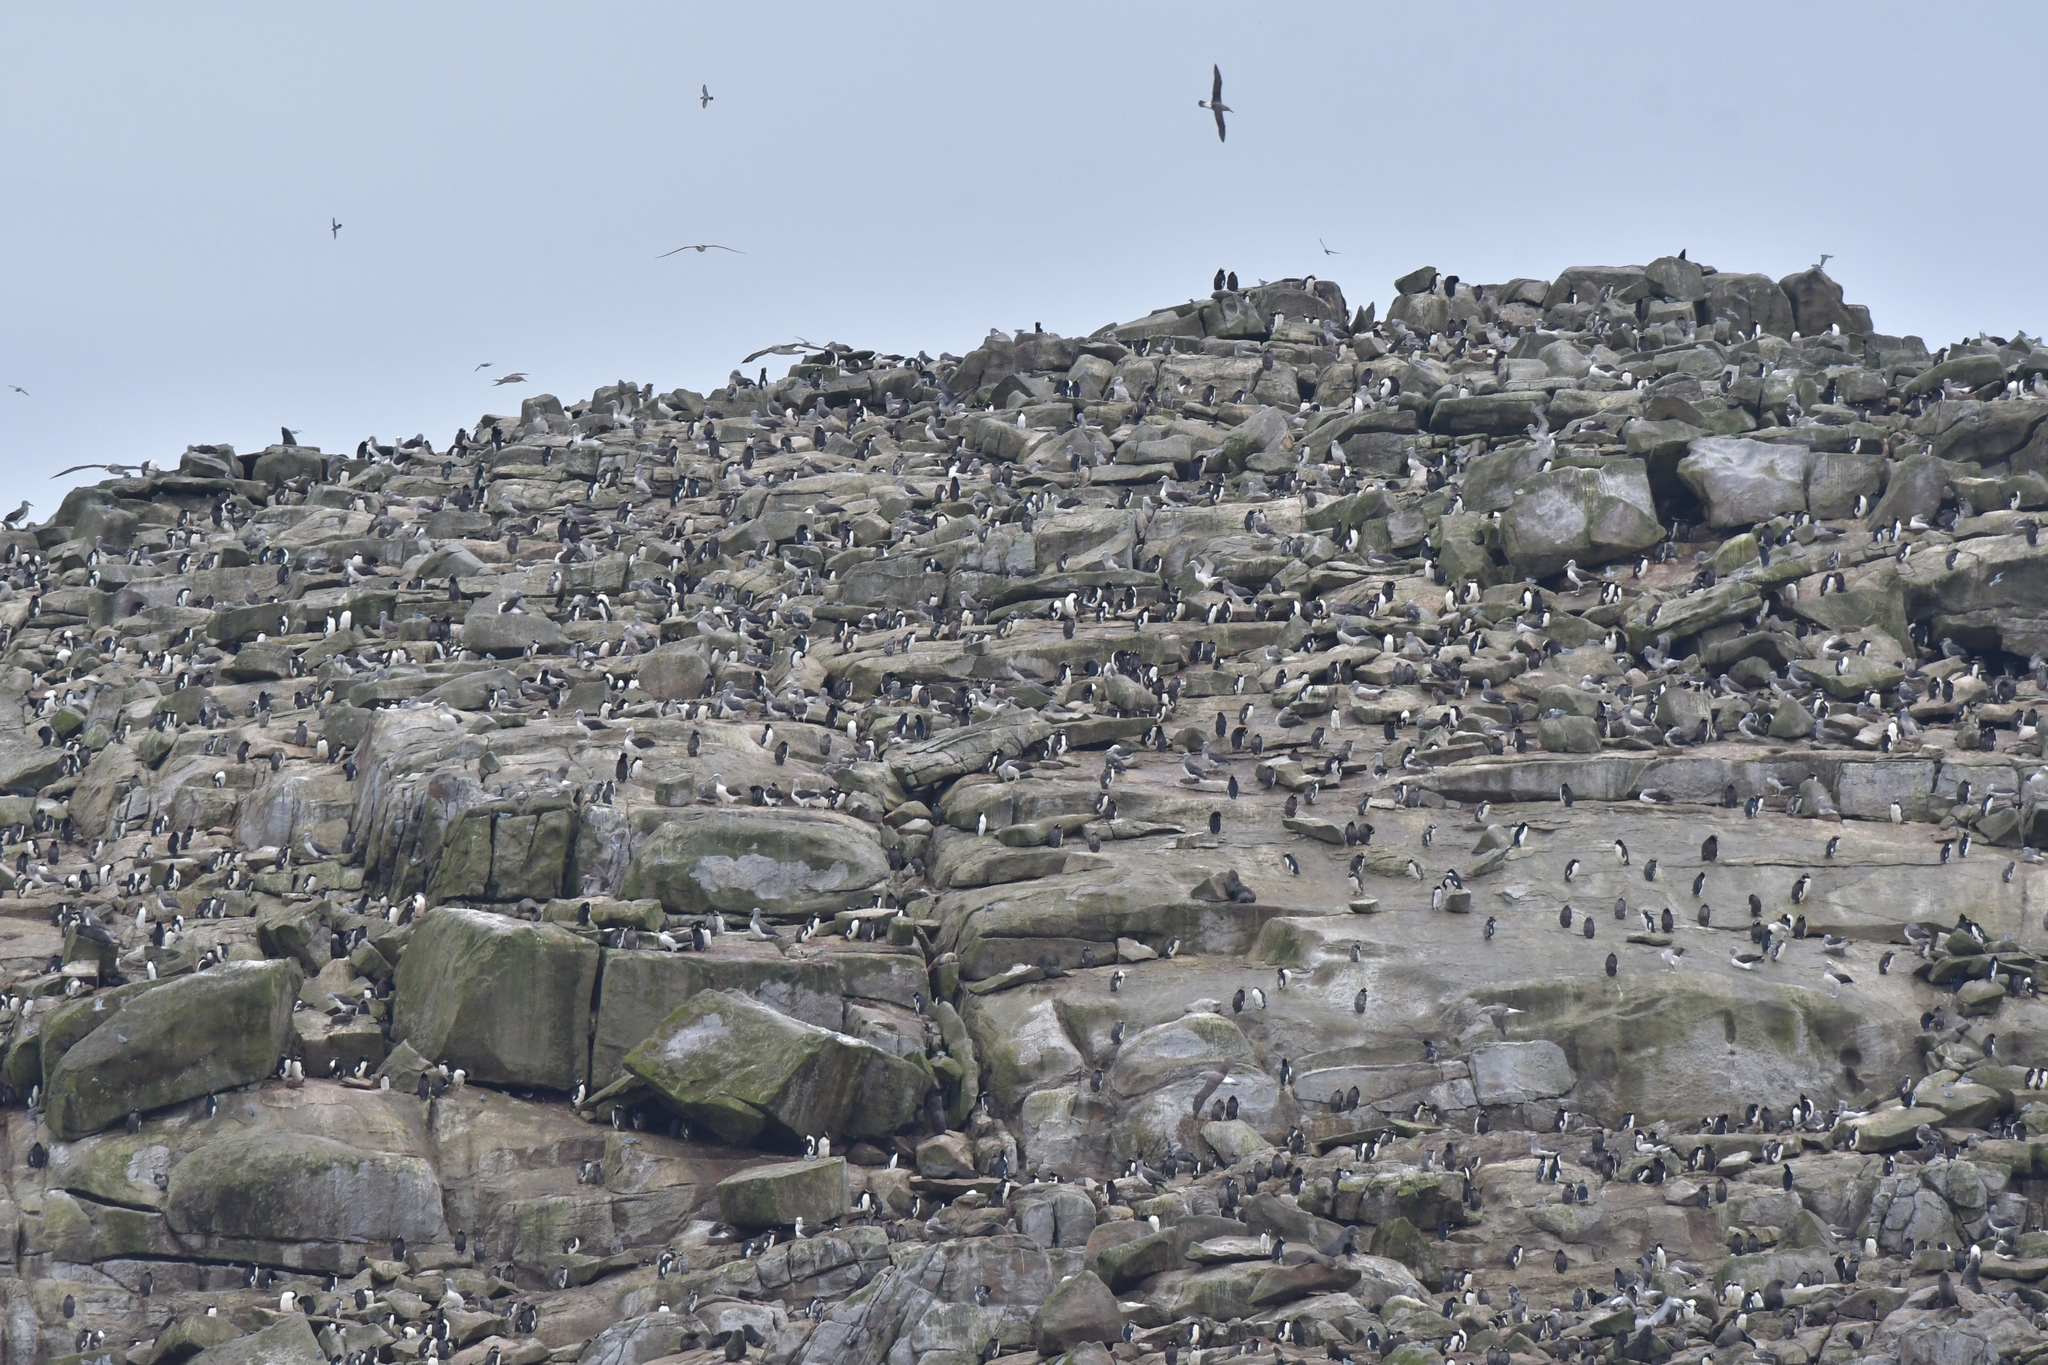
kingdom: Animalia
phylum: Chordata
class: Aves
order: Sphenisciformes
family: Spheniscidae
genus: Eudyptes
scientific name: Eudyptes sclateri
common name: Erect-crested penguin
